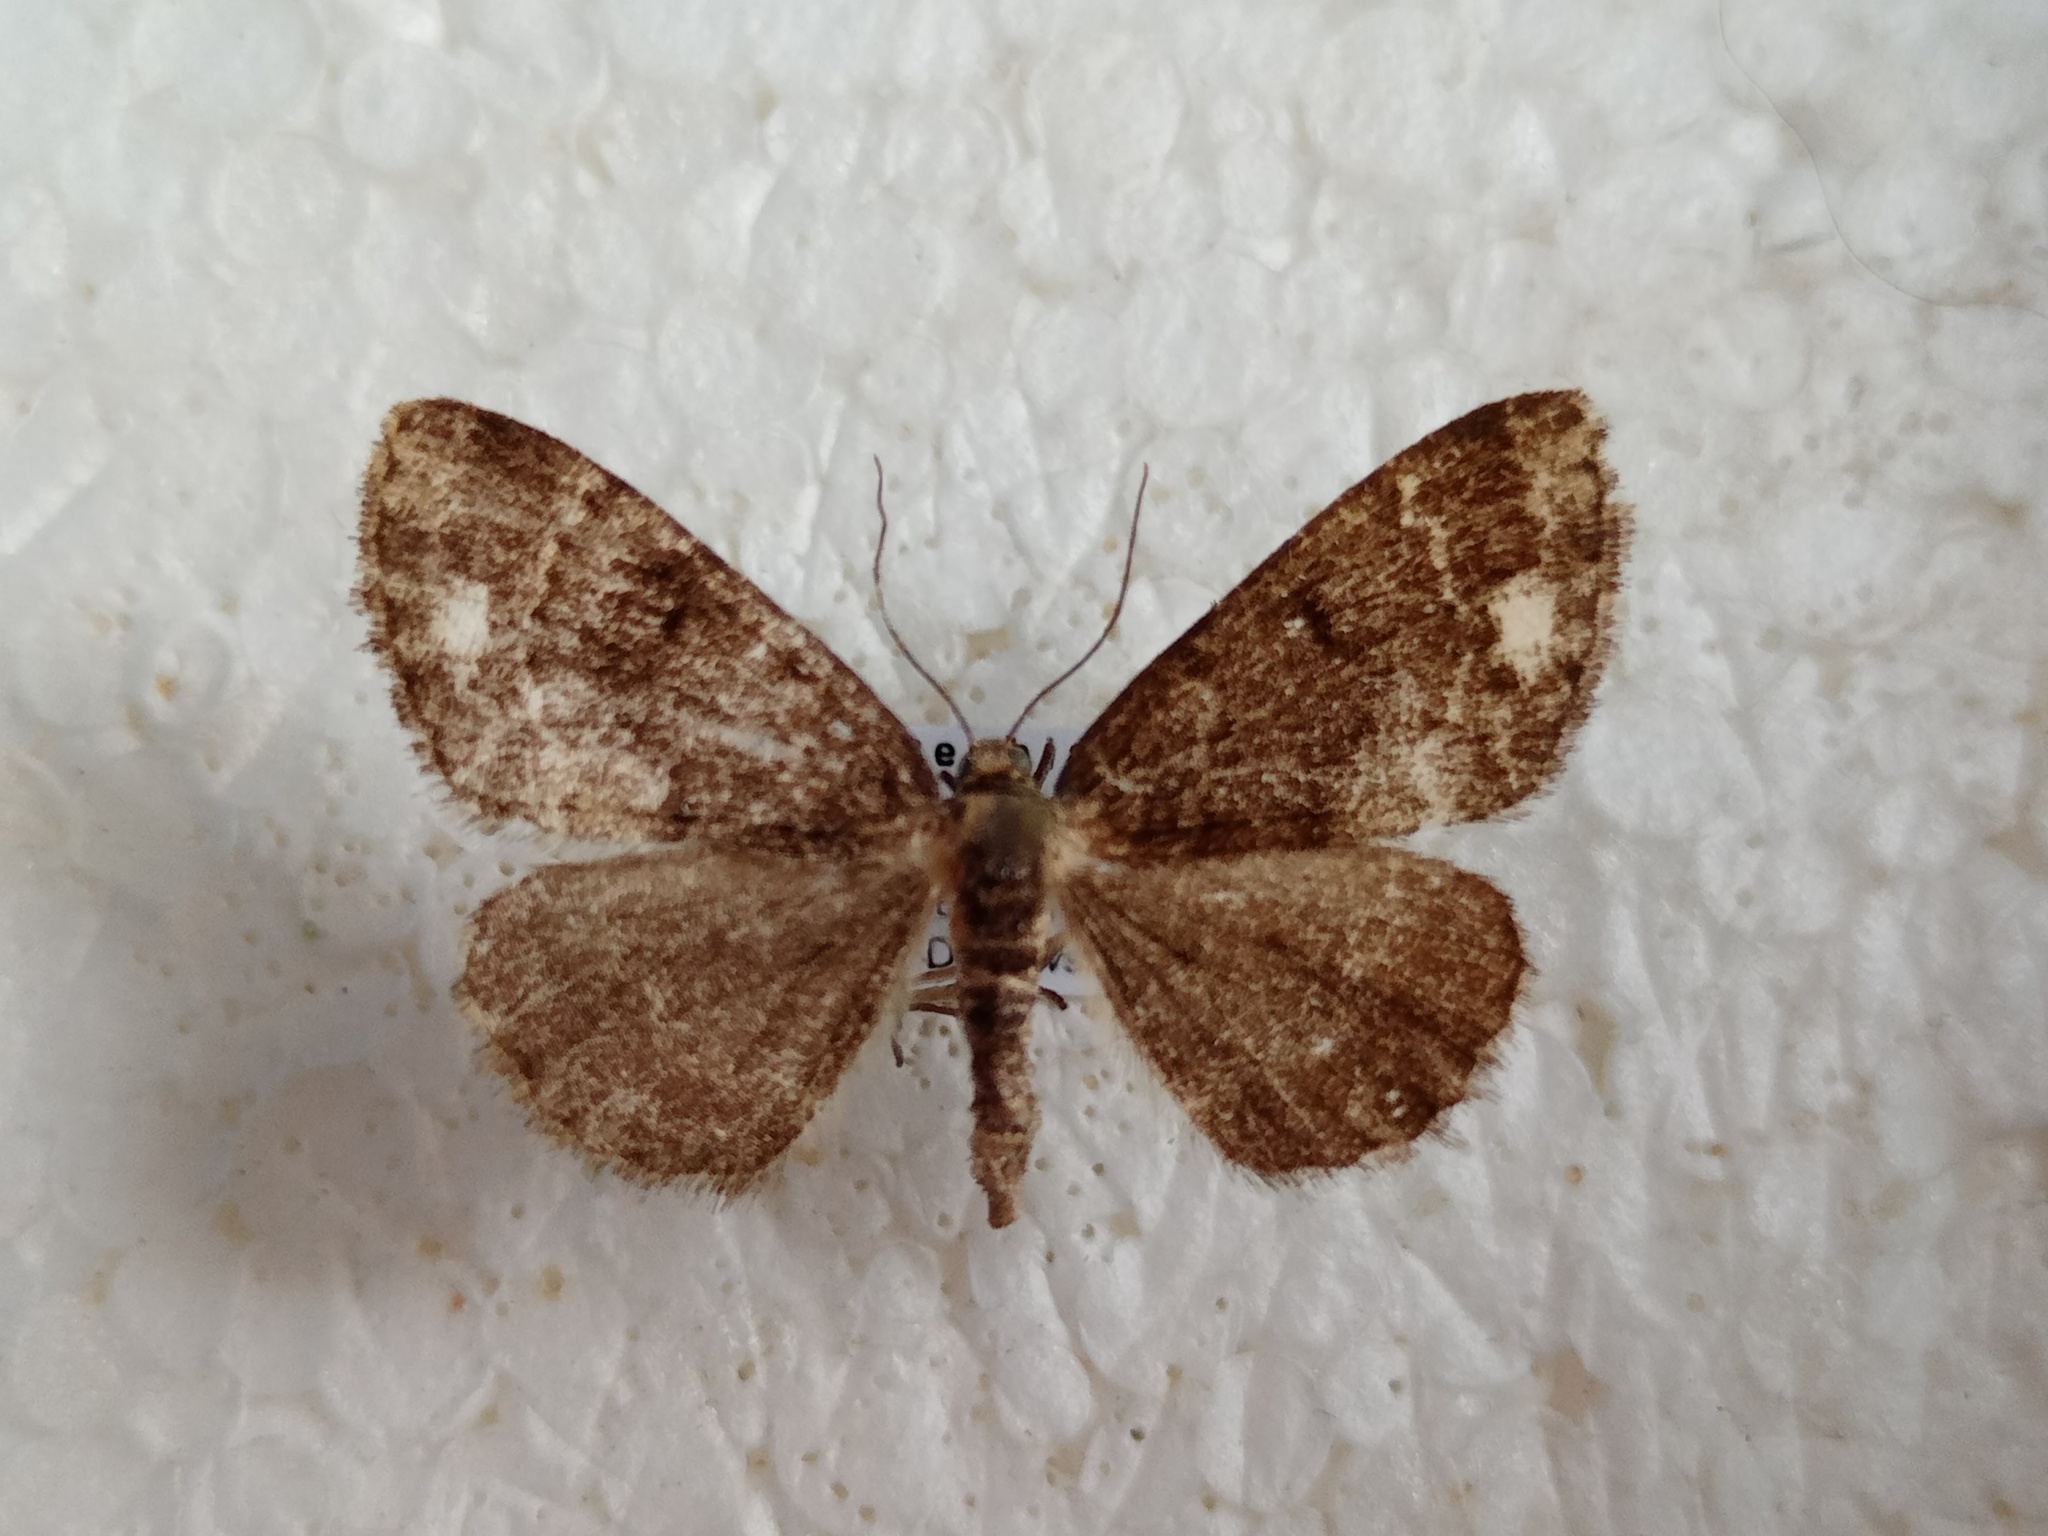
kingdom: Animalia
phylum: Arthropoda
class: Insecta
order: Lepidoptera
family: Geometridae
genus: Parectropis
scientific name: Parectropis similaria
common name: Brindled white-spot
